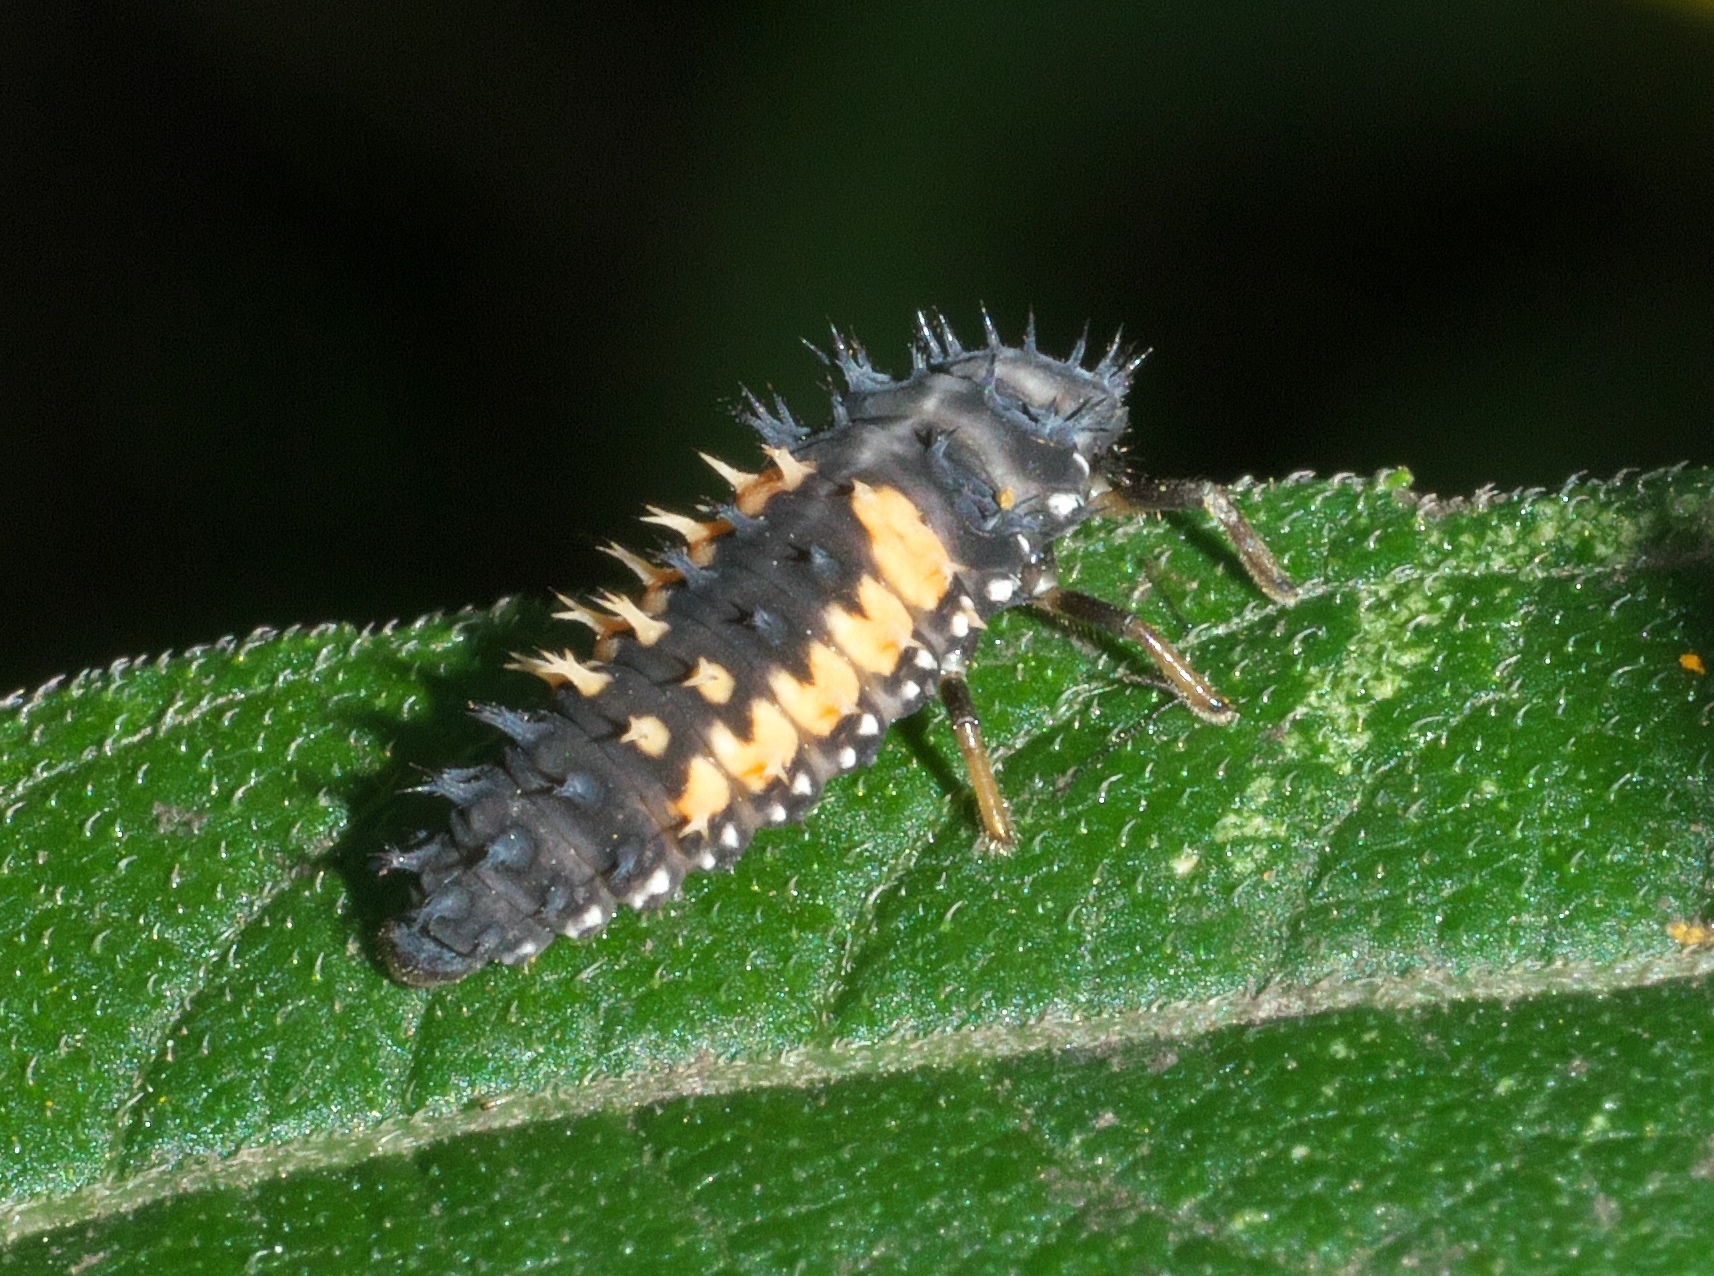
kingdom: Animalia
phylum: Arthropoda
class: Insecta
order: Coleoptera
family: Coccinellidae
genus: Harmonia
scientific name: Harmonia axyridis
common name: Harlequin ladybird
